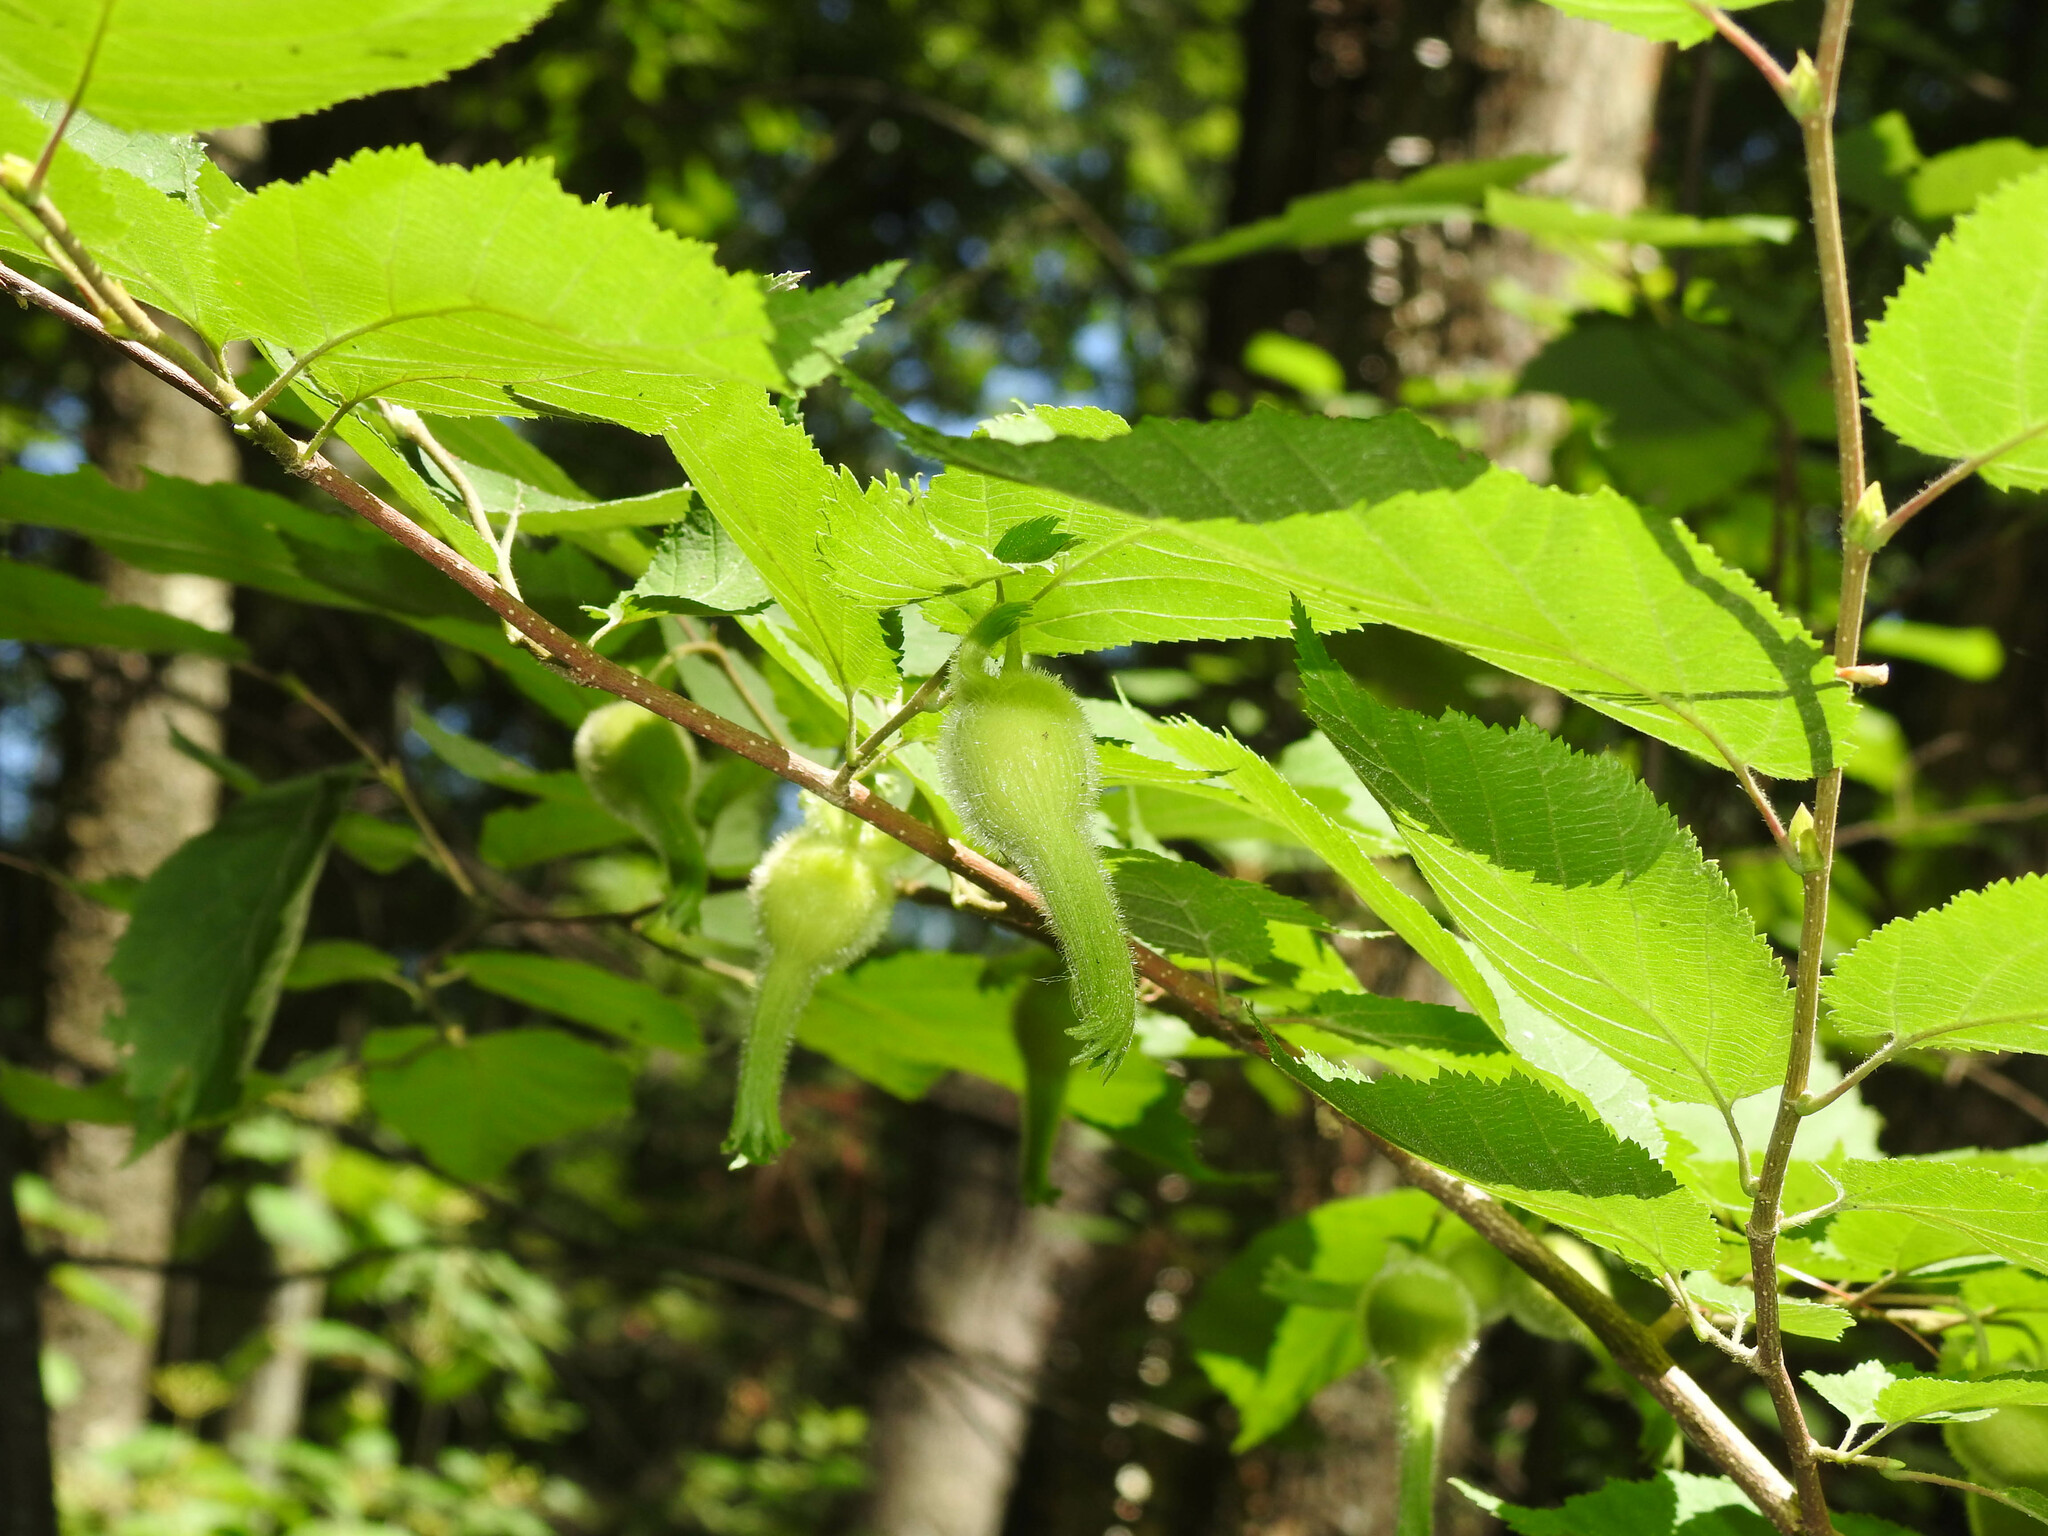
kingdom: Plantae
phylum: Tracheophyta
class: Magnoliopsida
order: Fagales
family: Betulaceae
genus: Corylus
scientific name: Corylus cornuta
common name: Beaked hazel
